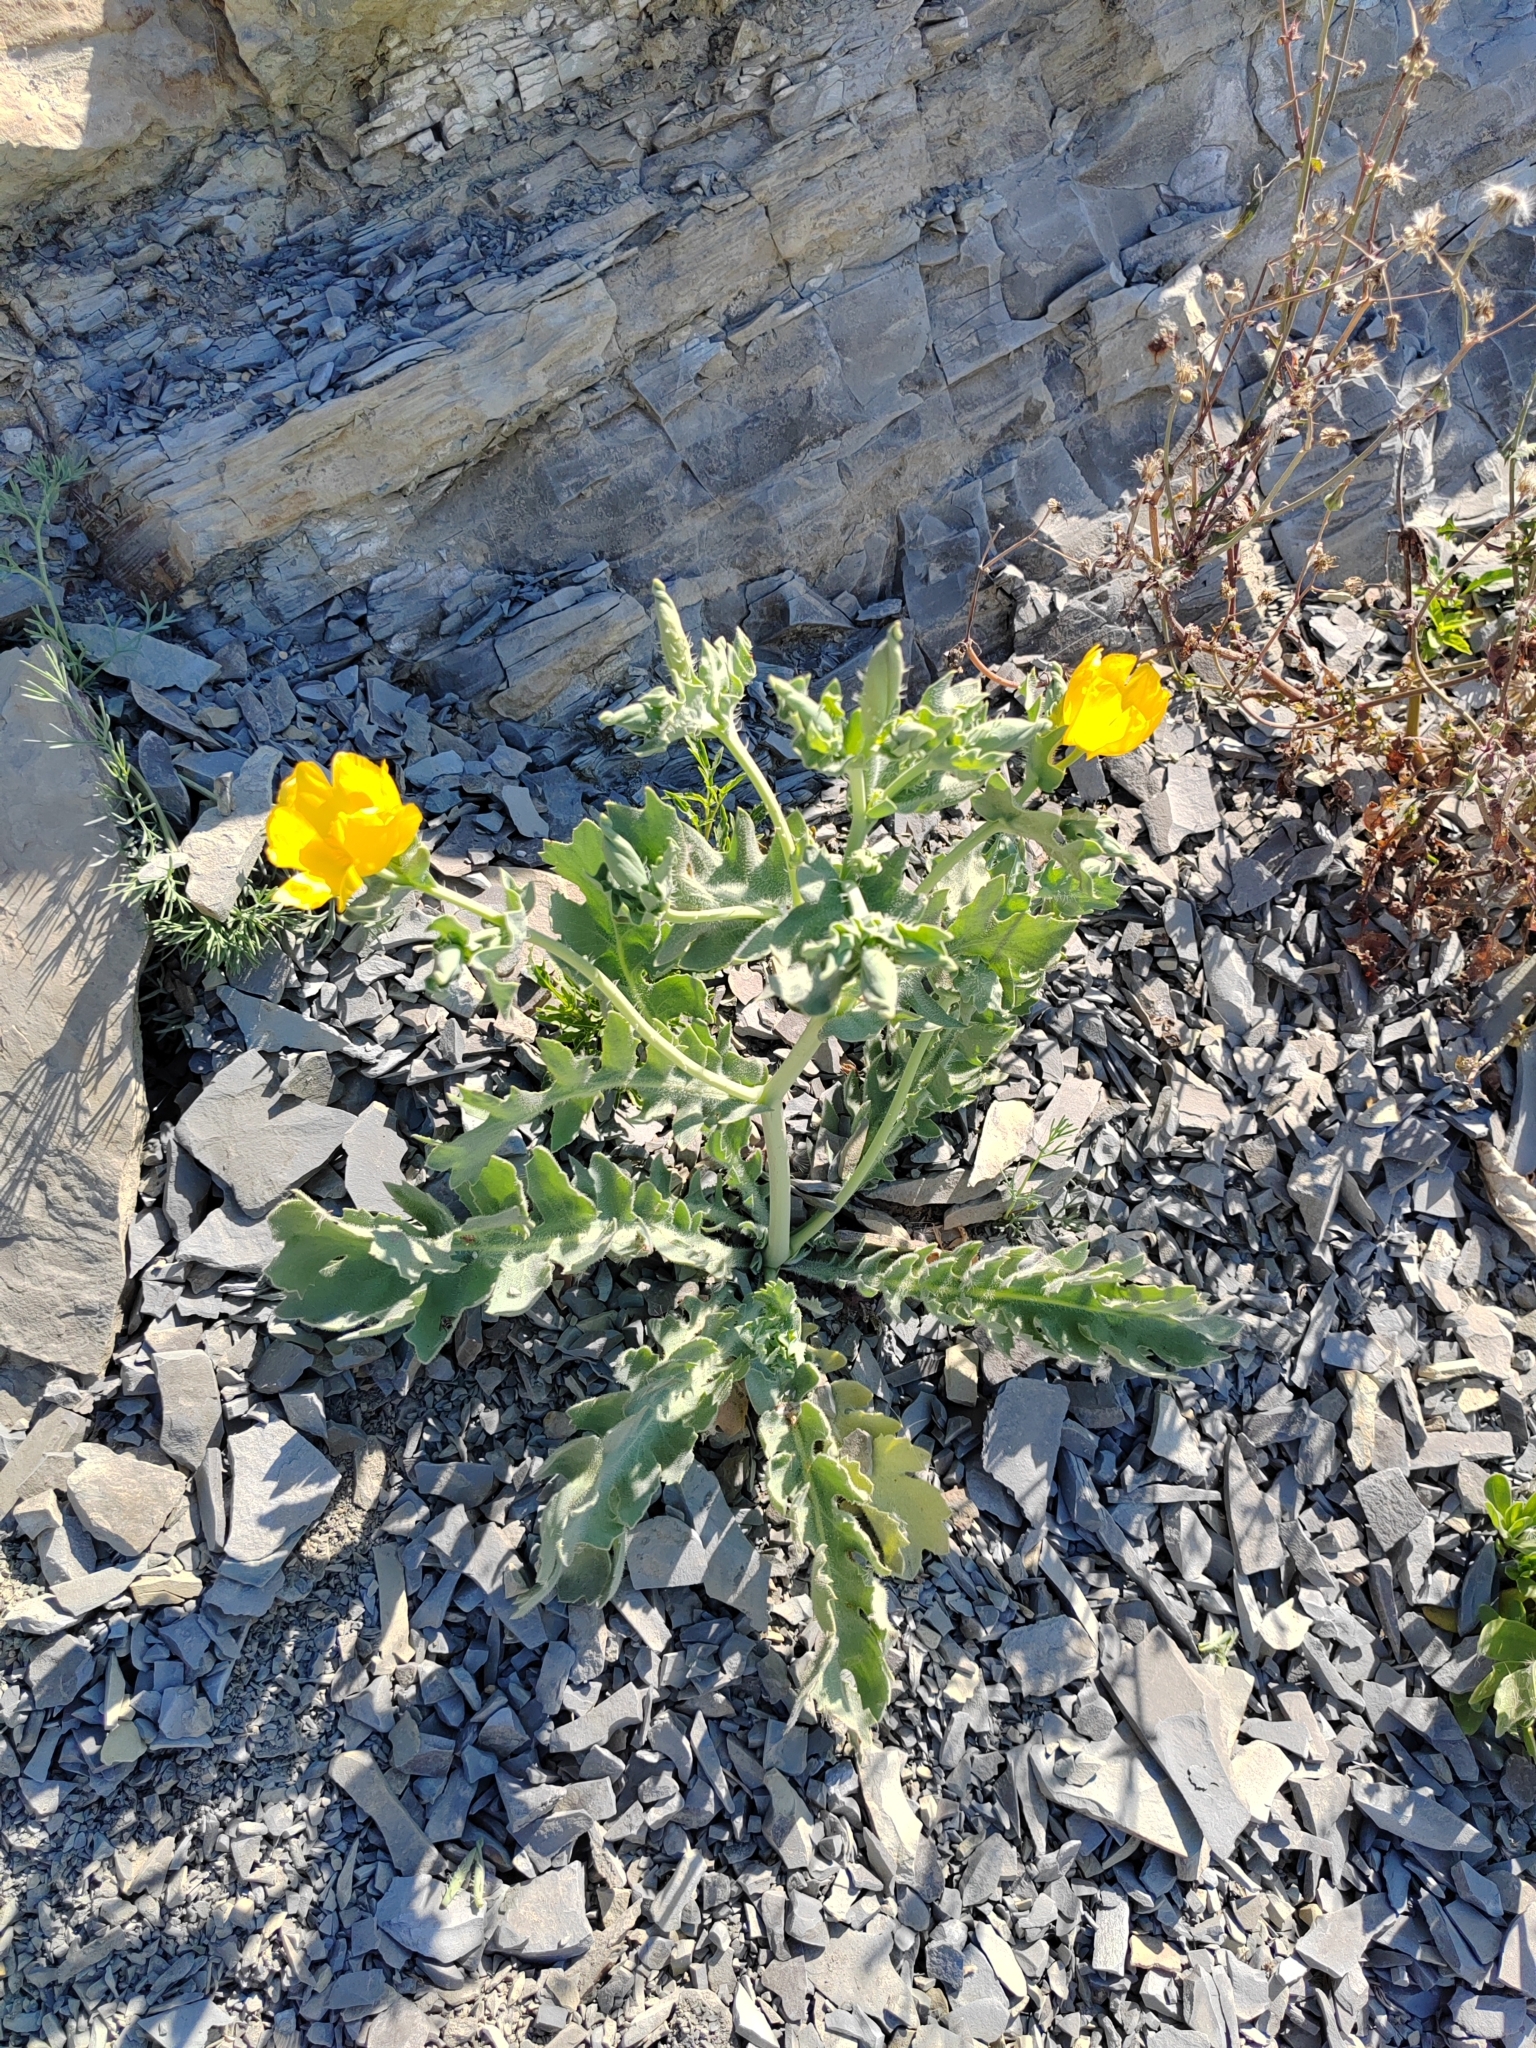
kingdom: Plantae
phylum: Tracheophyta
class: Magnoliopsida
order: Ranunculales
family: Papaveraceae
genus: Glaucium
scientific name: Glaucium flavum
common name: Yellow horned-poppy
